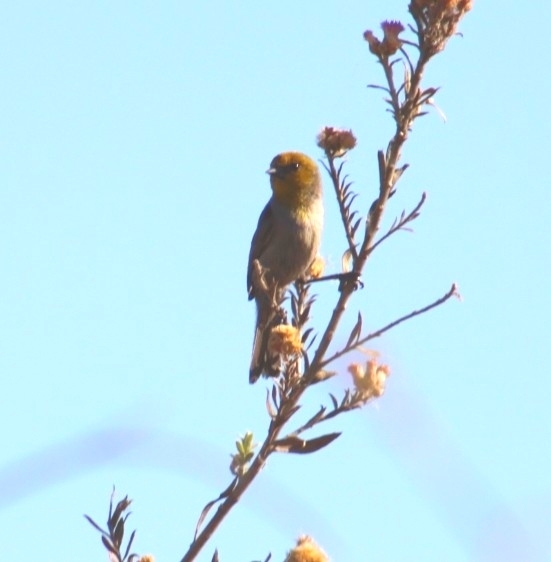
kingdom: Animalia
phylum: Chordata
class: Aves
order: Passeriformes
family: Remizidae
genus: Auriparus
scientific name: Auriparus flaviceps
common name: Verdin
